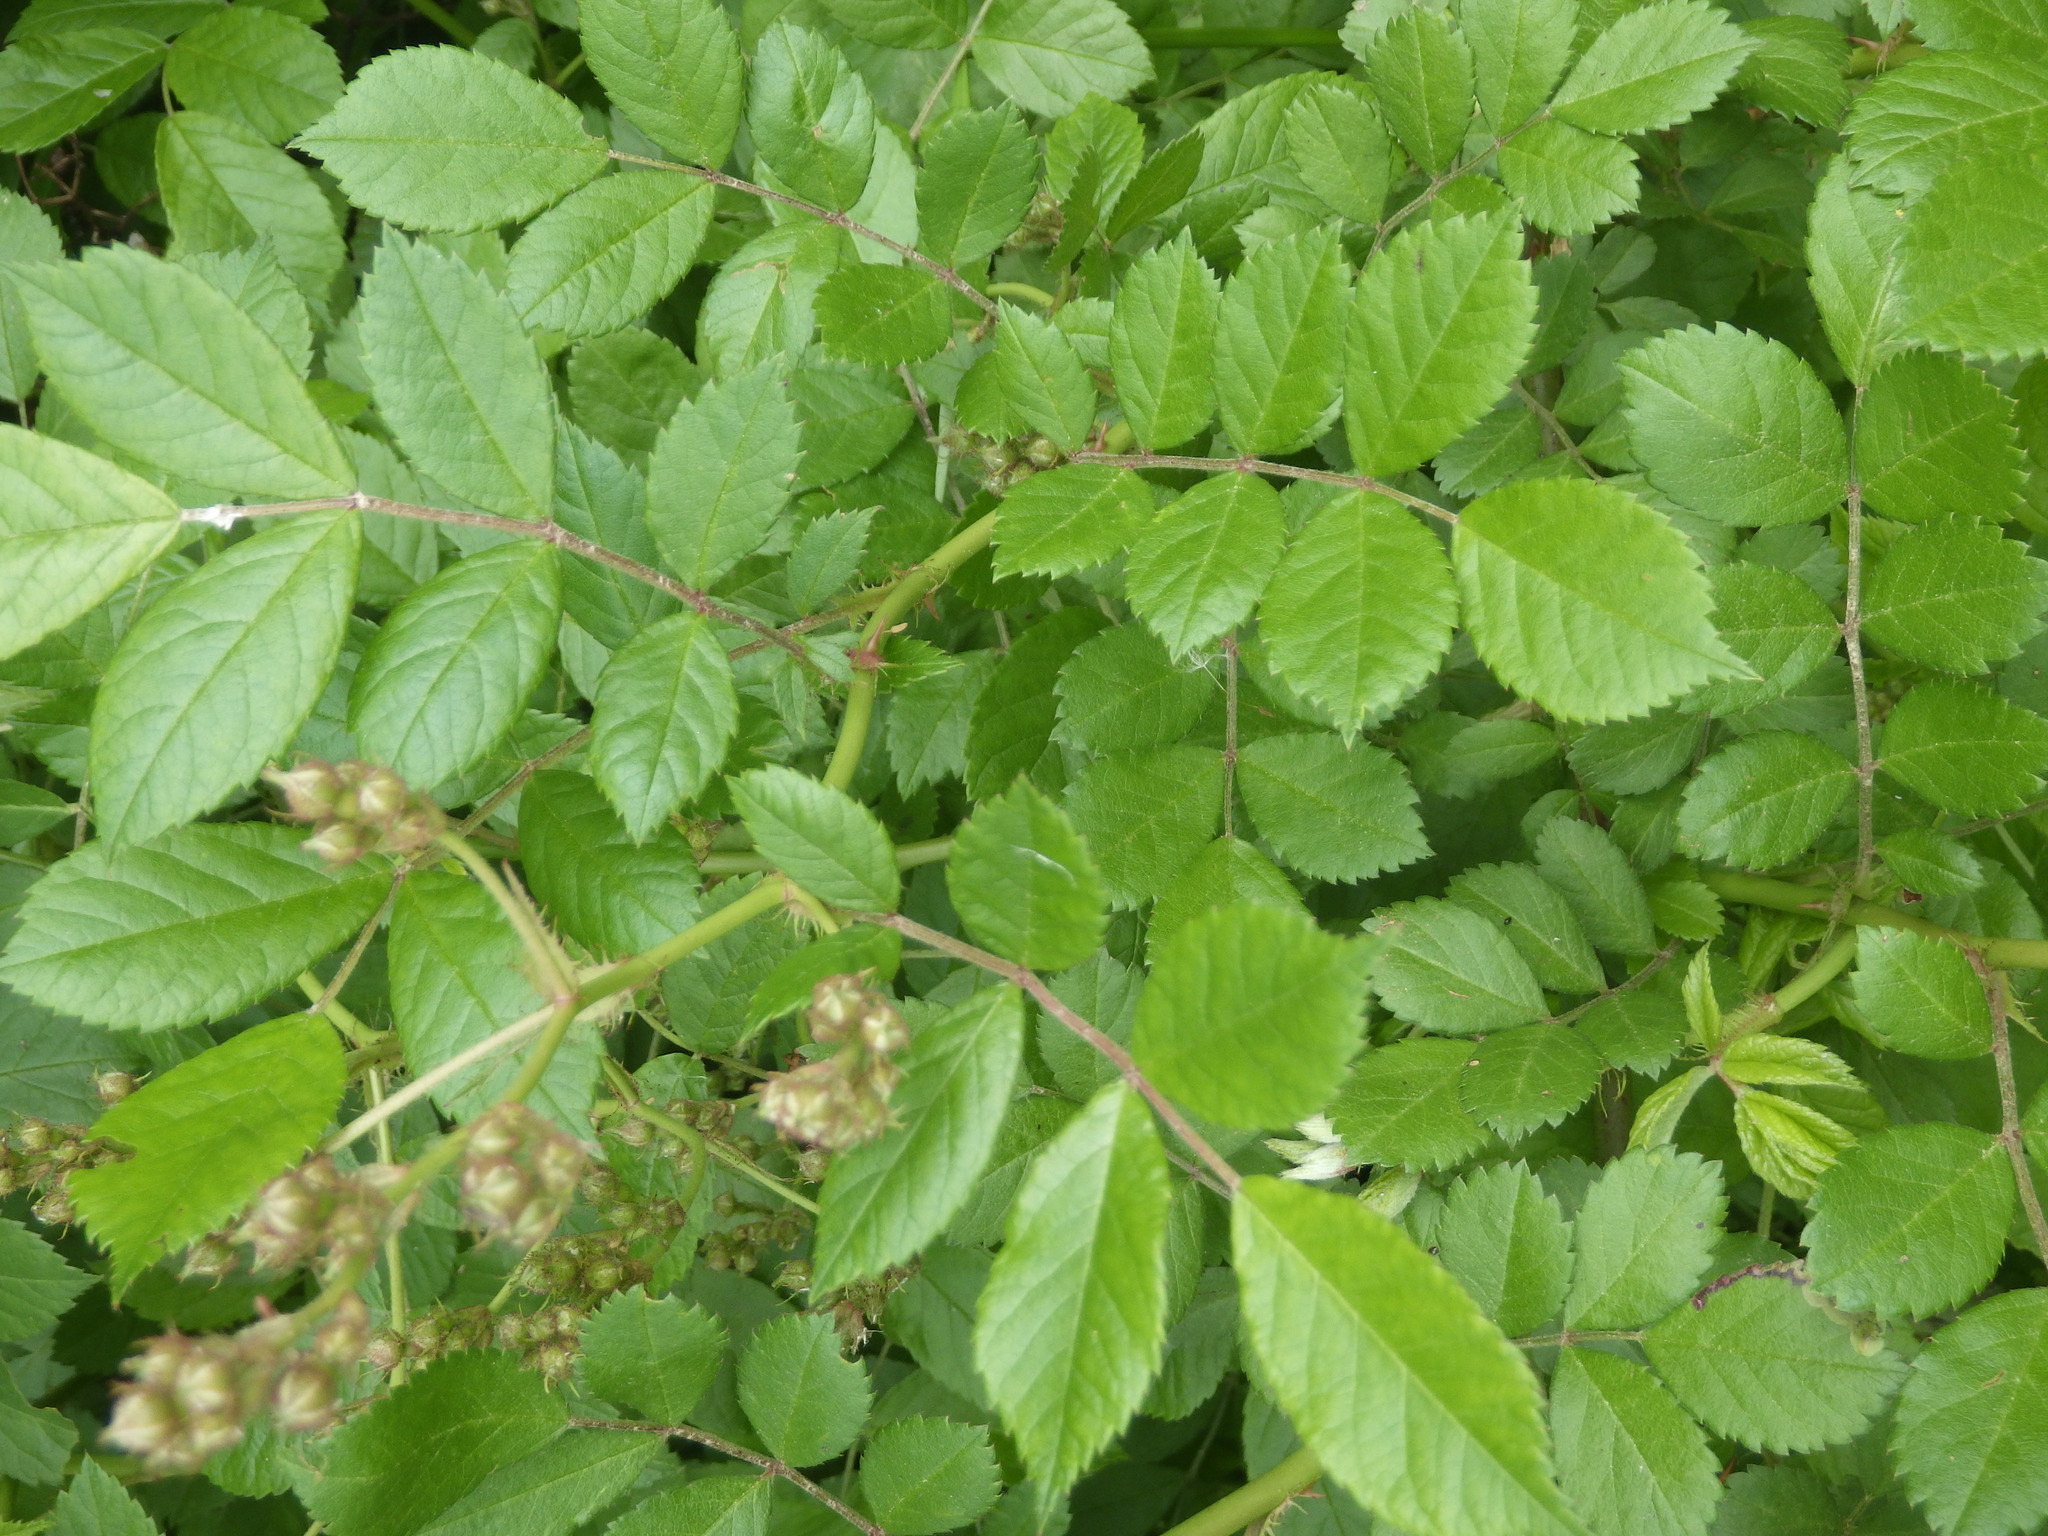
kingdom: Plantae
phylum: Tracheophyta
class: Magnoliopsida
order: Rosales
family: Rosaceae
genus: Rosa
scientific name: Rosa multiflora
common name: Multiflora rose
